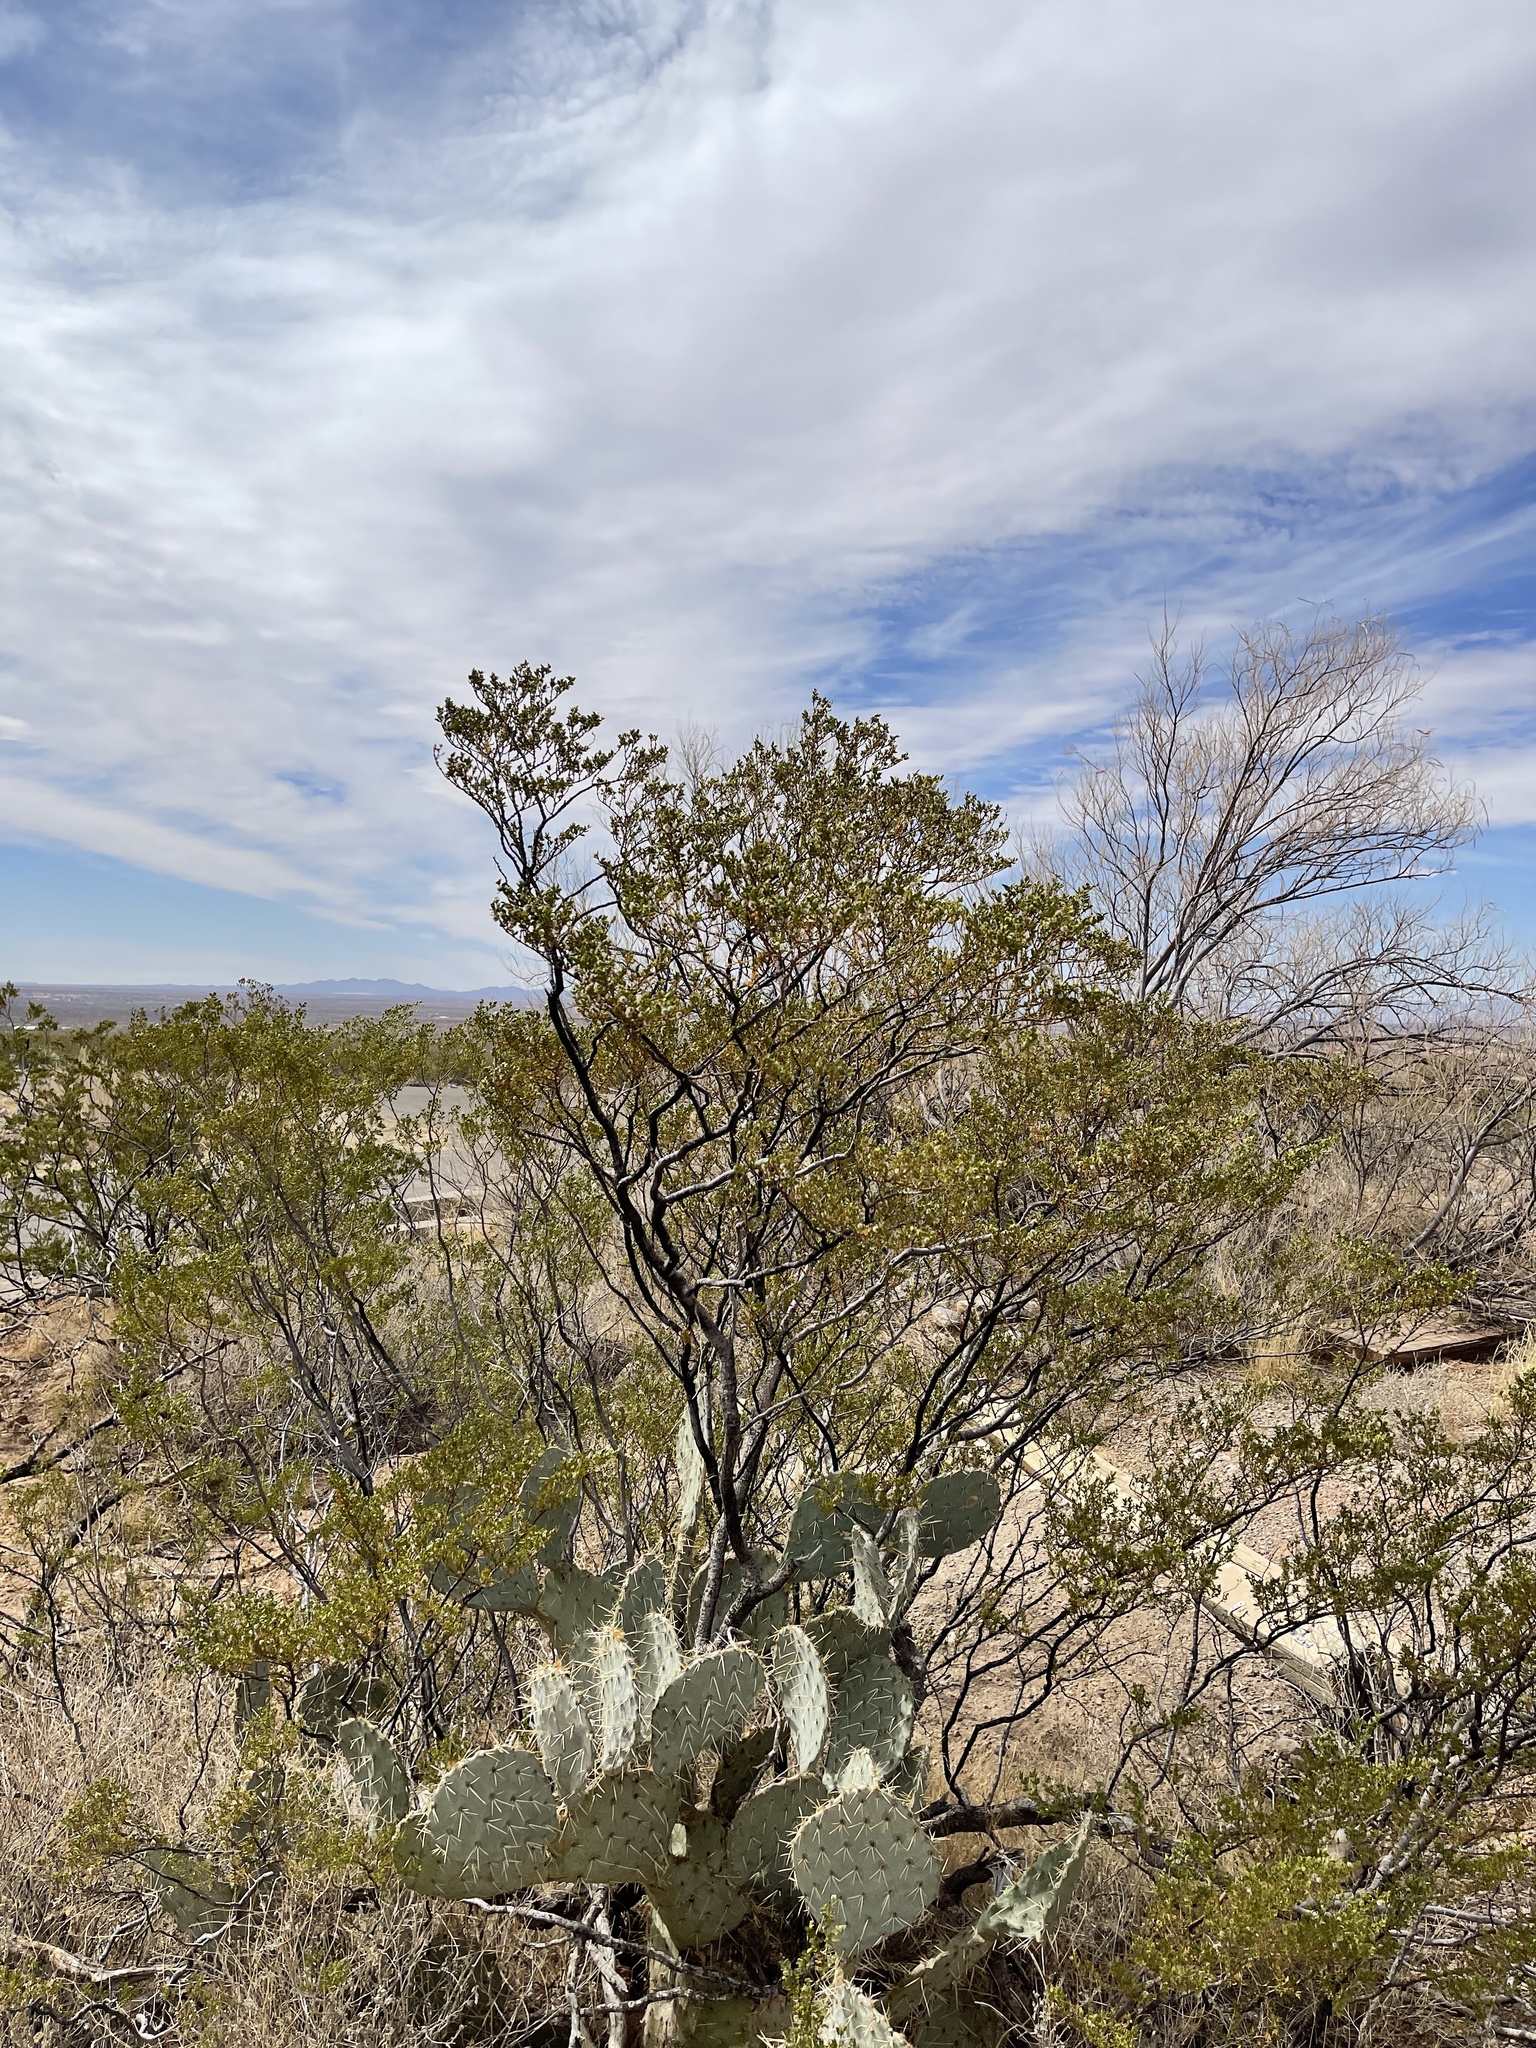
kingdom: Plantae
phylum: Tracheophyta
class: Magnoliopsida
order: Zygophyllales
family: Zygophyllaceae
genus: Larrea
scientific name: Larrea tridentata
